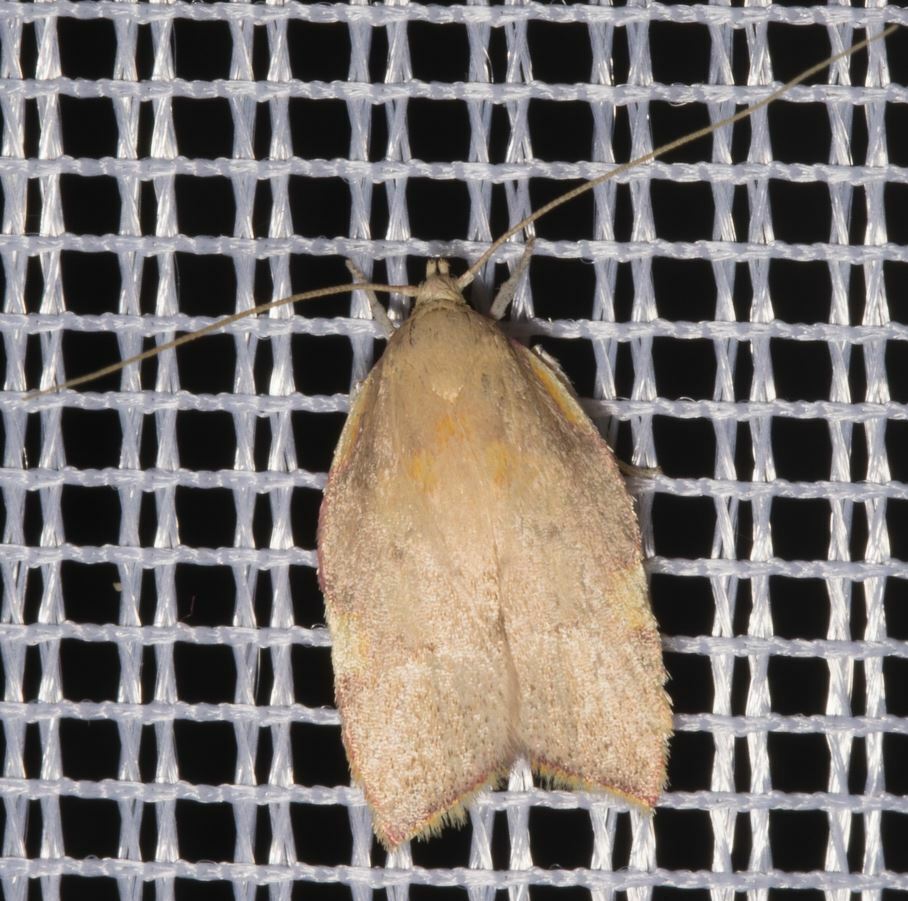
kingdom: Animalia
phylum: Arthropoda
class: Insecta
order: Lepidoptera
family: Peleopodidae
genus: Carcina
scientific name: Carcina quercana
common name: Moth
